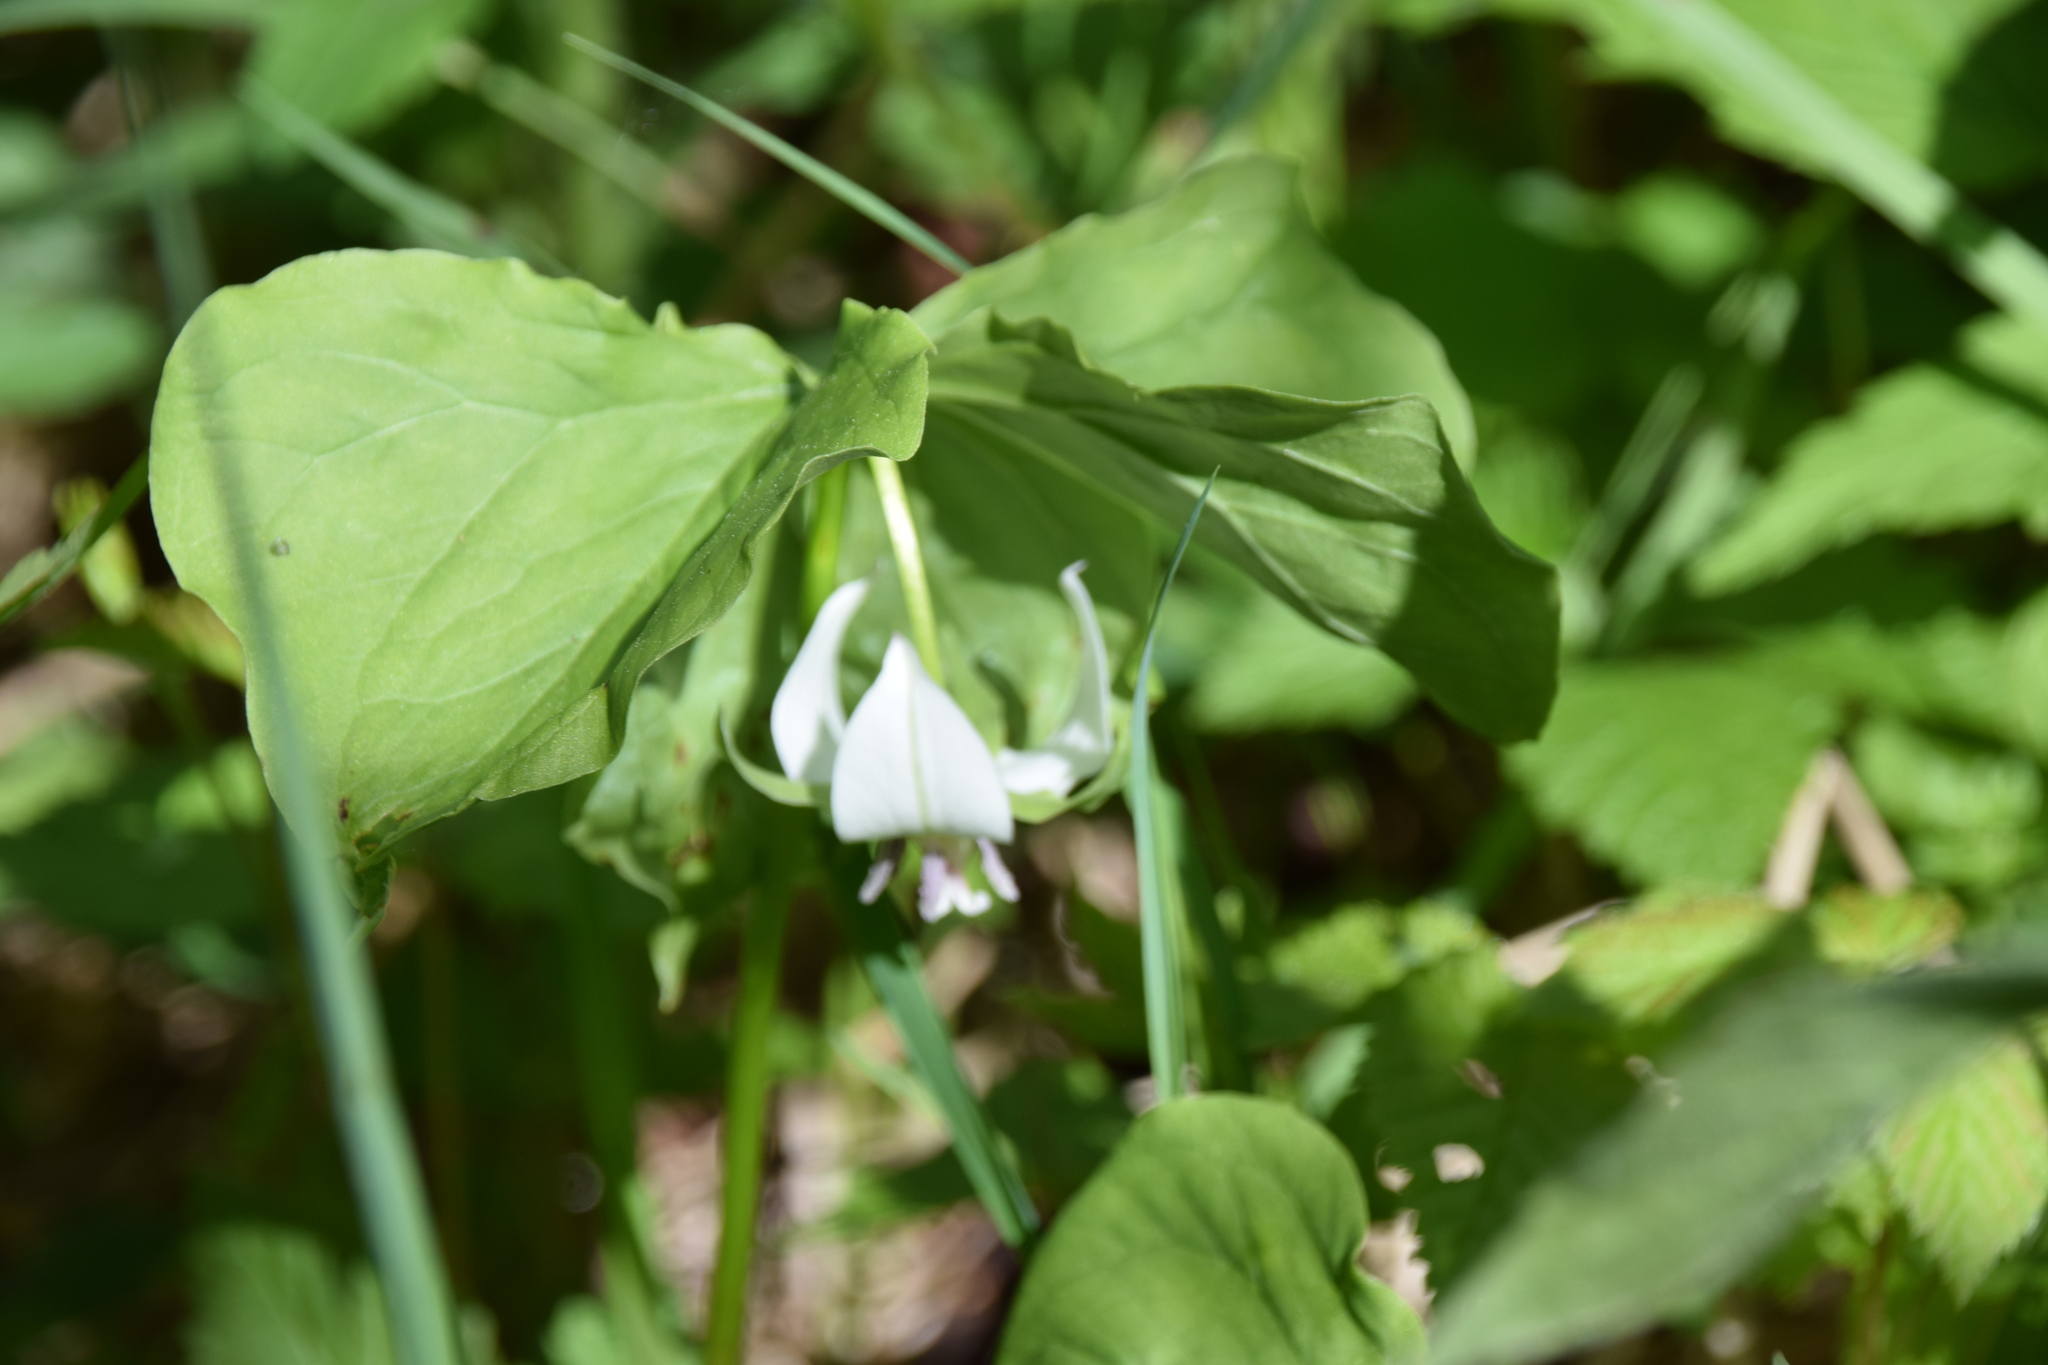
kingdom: Plantae
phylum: Tracheophyta
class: Liliopsida
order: Liliales
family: Melanthiaceae
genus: Trillium
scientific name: Trillium cernuum
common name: Nodding trillium
